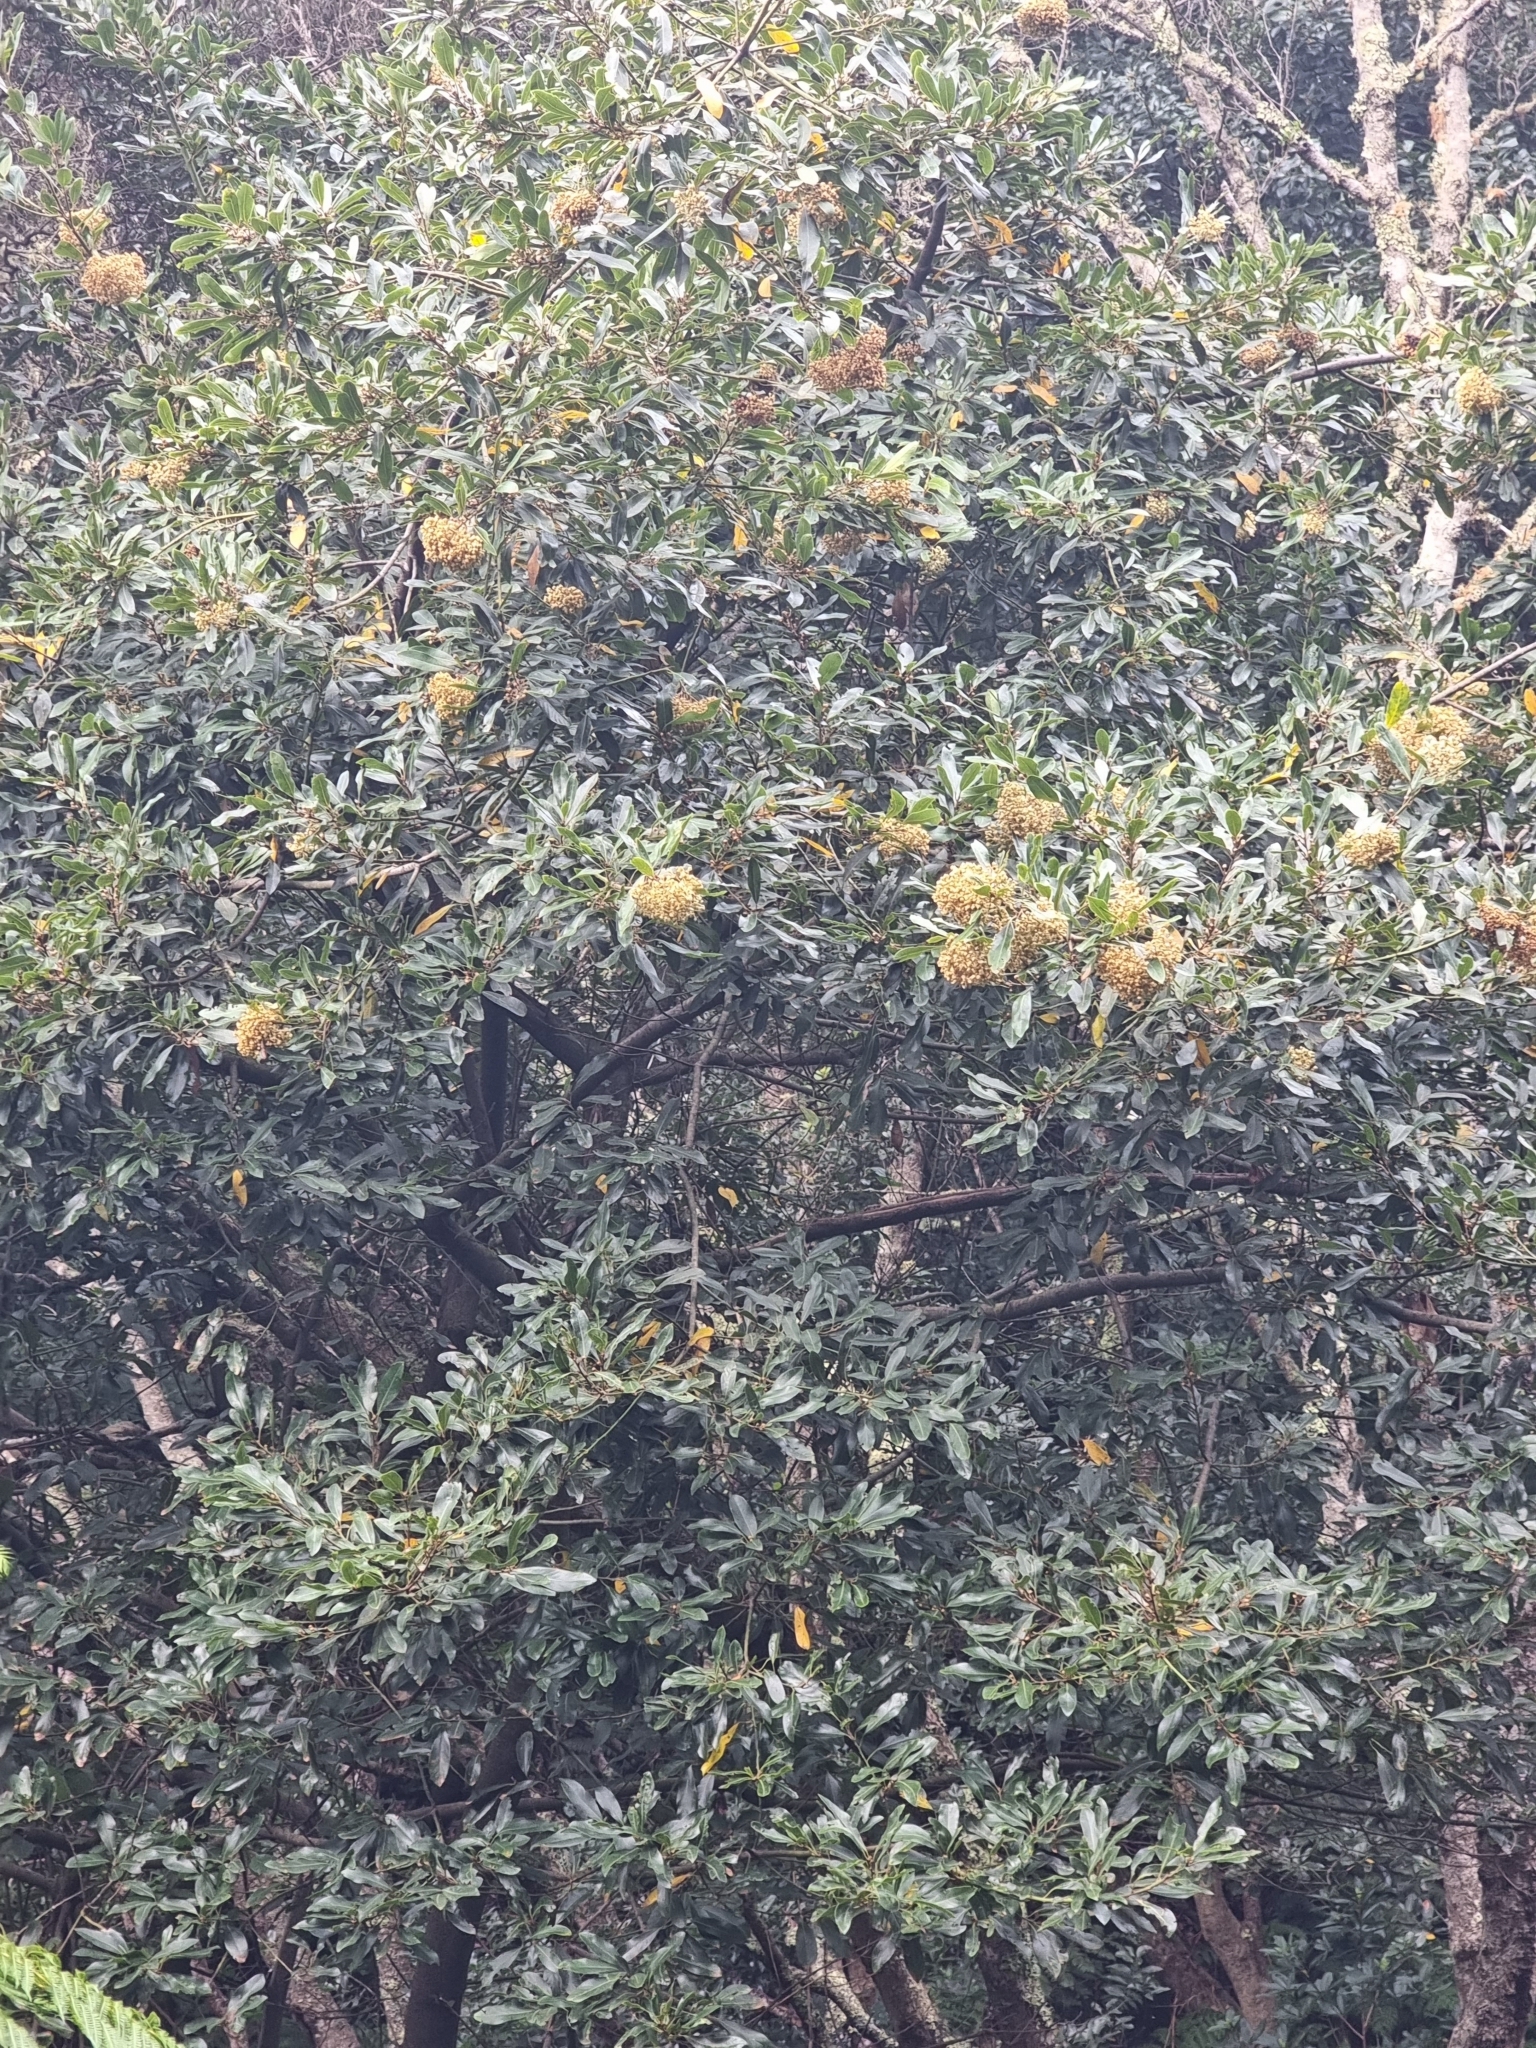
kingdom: Plantae
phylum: Tracheophyta
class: Magnoliopsida
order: Laurales
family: Lauraceae
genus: Laurus
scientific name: Laurus novocanariensis
